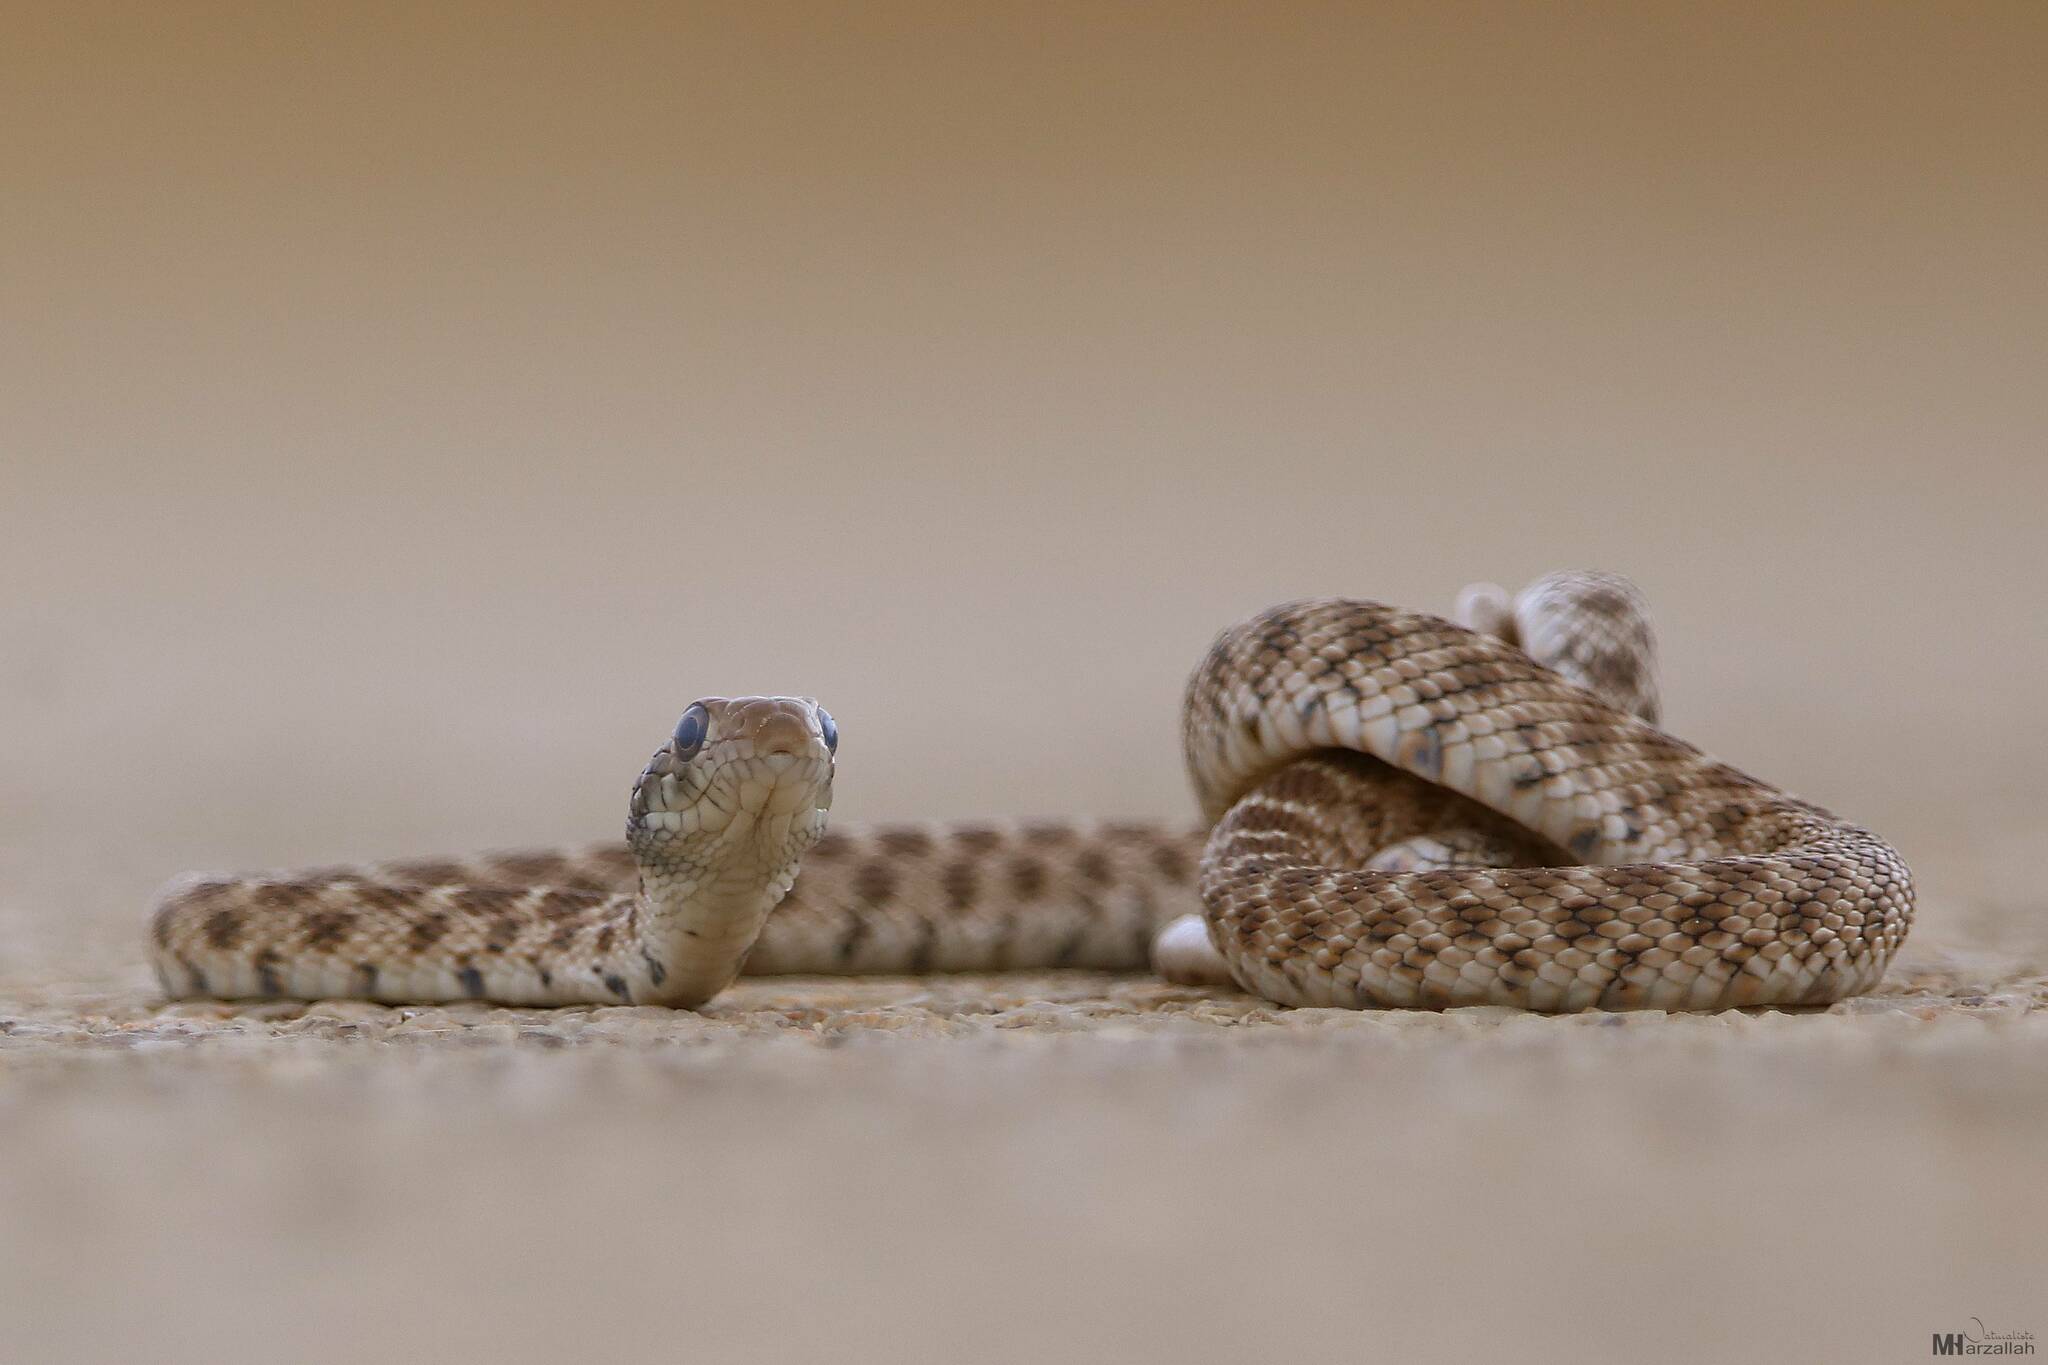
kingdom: Animalia
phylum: Chordata
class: Squamata
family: Colubridae
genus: Hemorrhois
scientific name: Hemorrhois algirus
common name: Algerian whip snake
